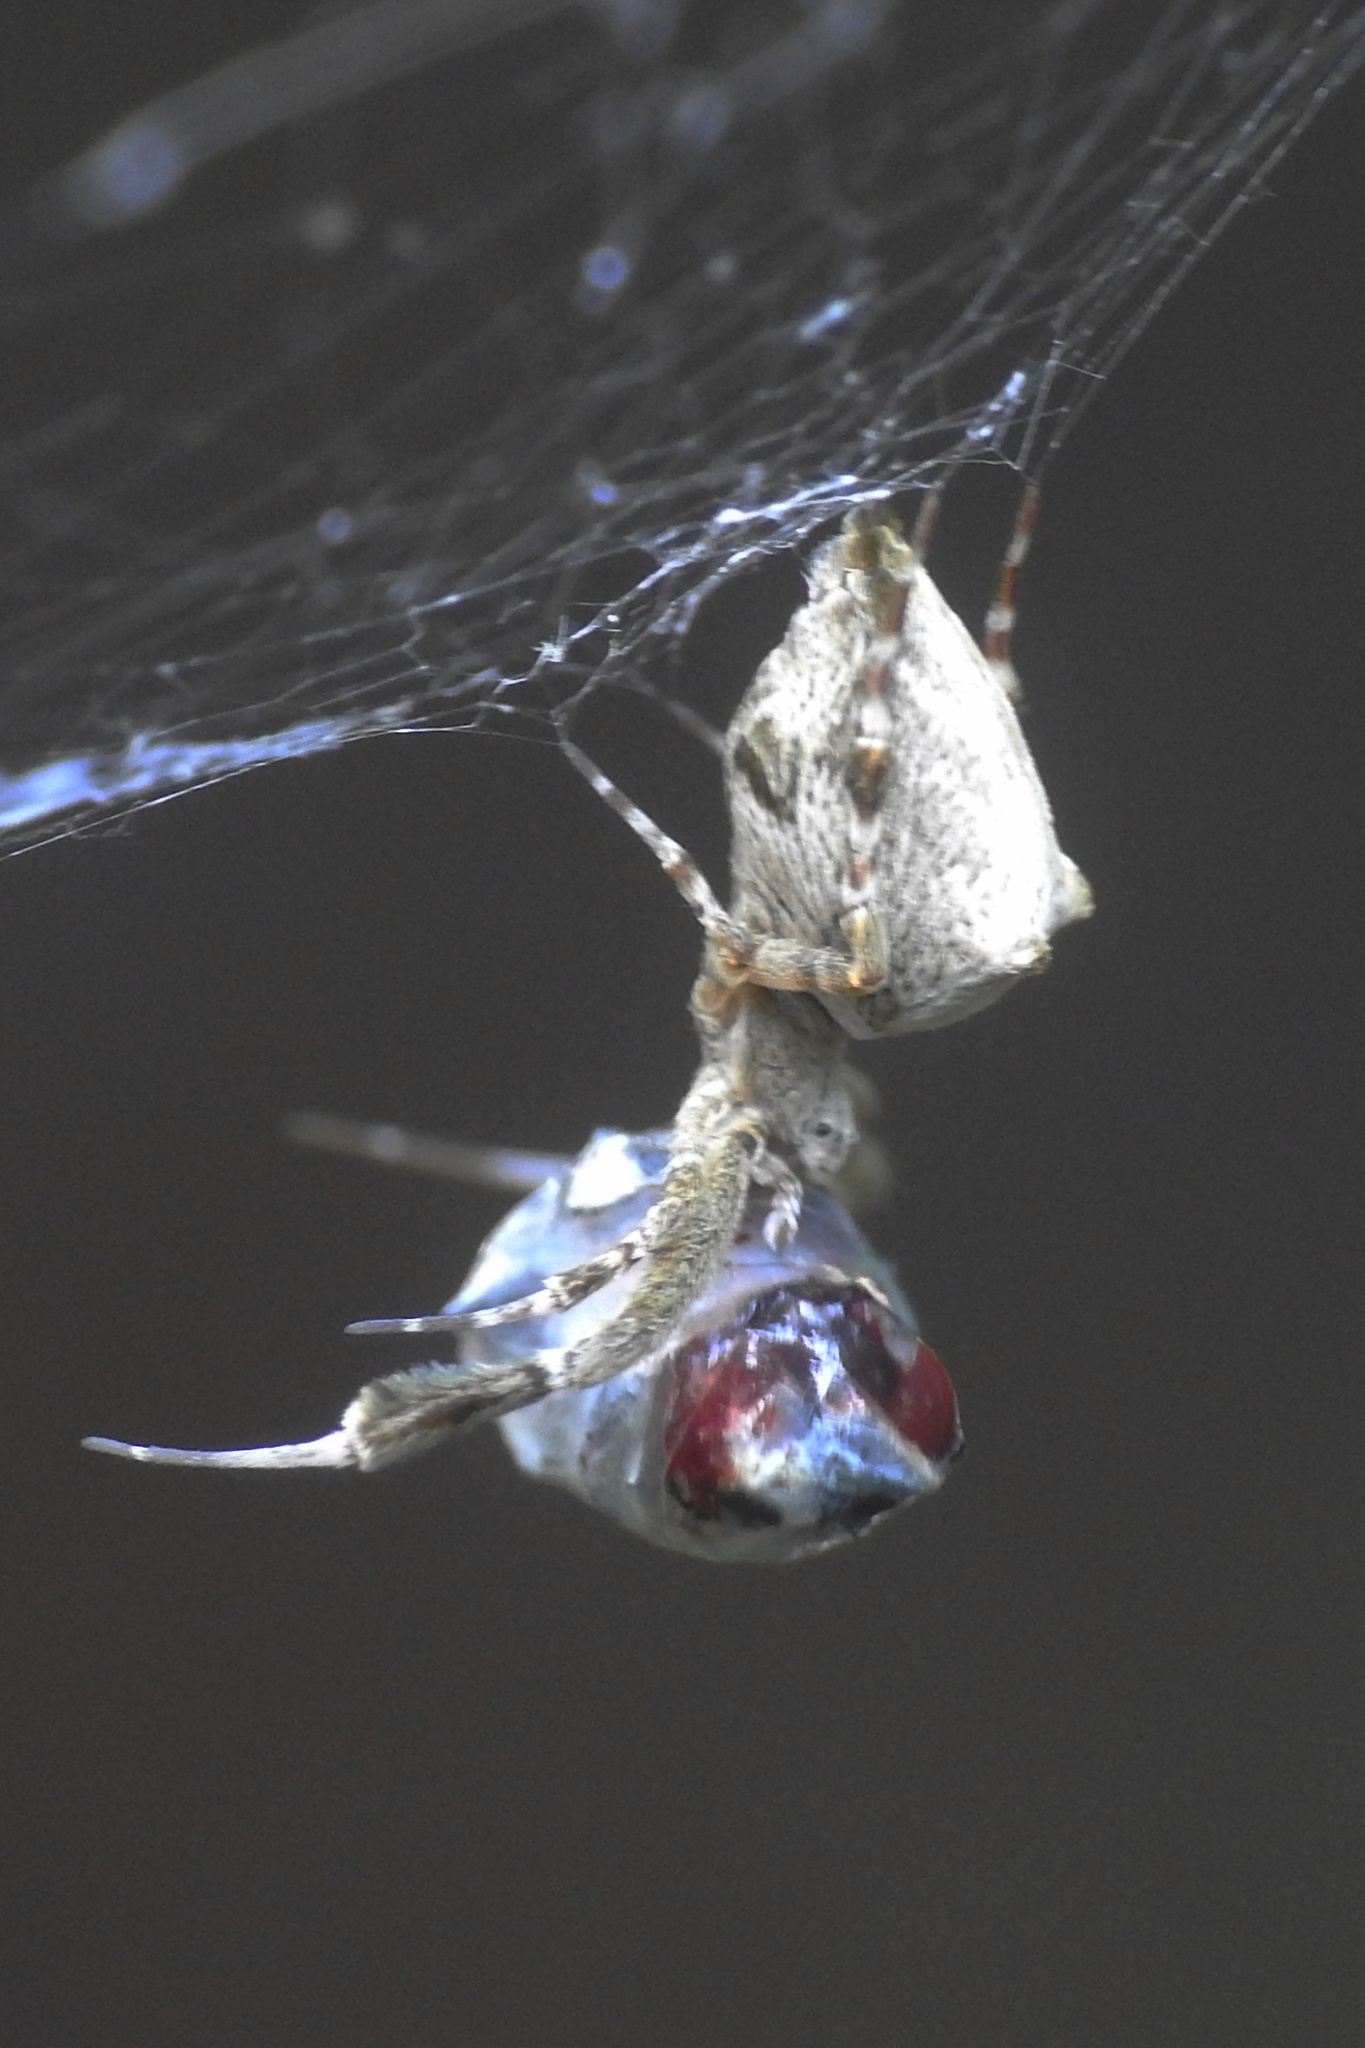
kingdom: Animalia
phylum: Arthropoda
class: Arachnida
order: Araneae
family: Uloboridae
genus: Uloborus
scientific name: Uloborus glomosus
